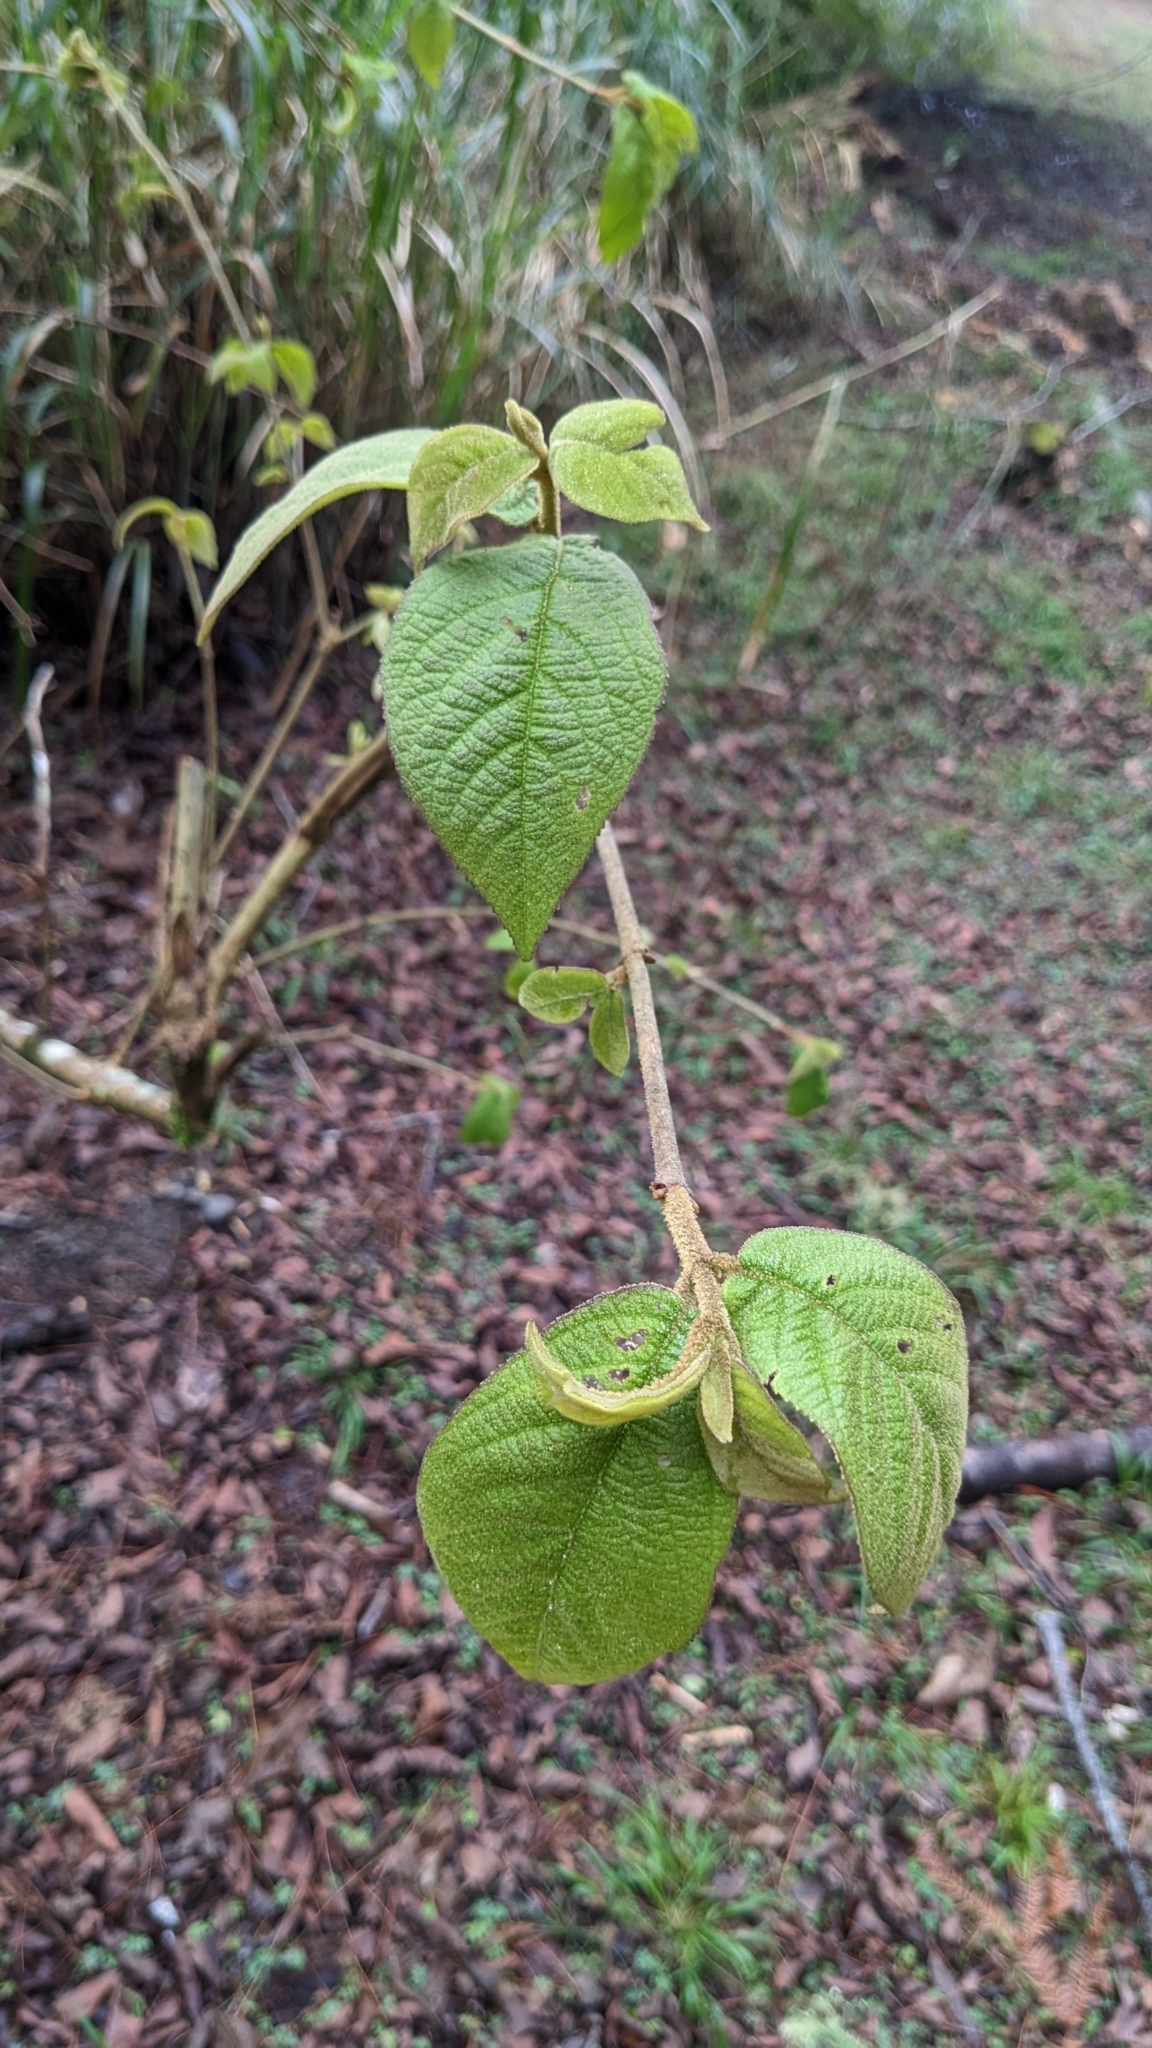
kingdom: Plantae
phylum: Tracheophyta
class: Magnoliopsida
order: Lamiales
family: Lamiaceae
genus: Callicarpa
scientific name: Callicarpa pedunculata
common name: Velvetleaf
